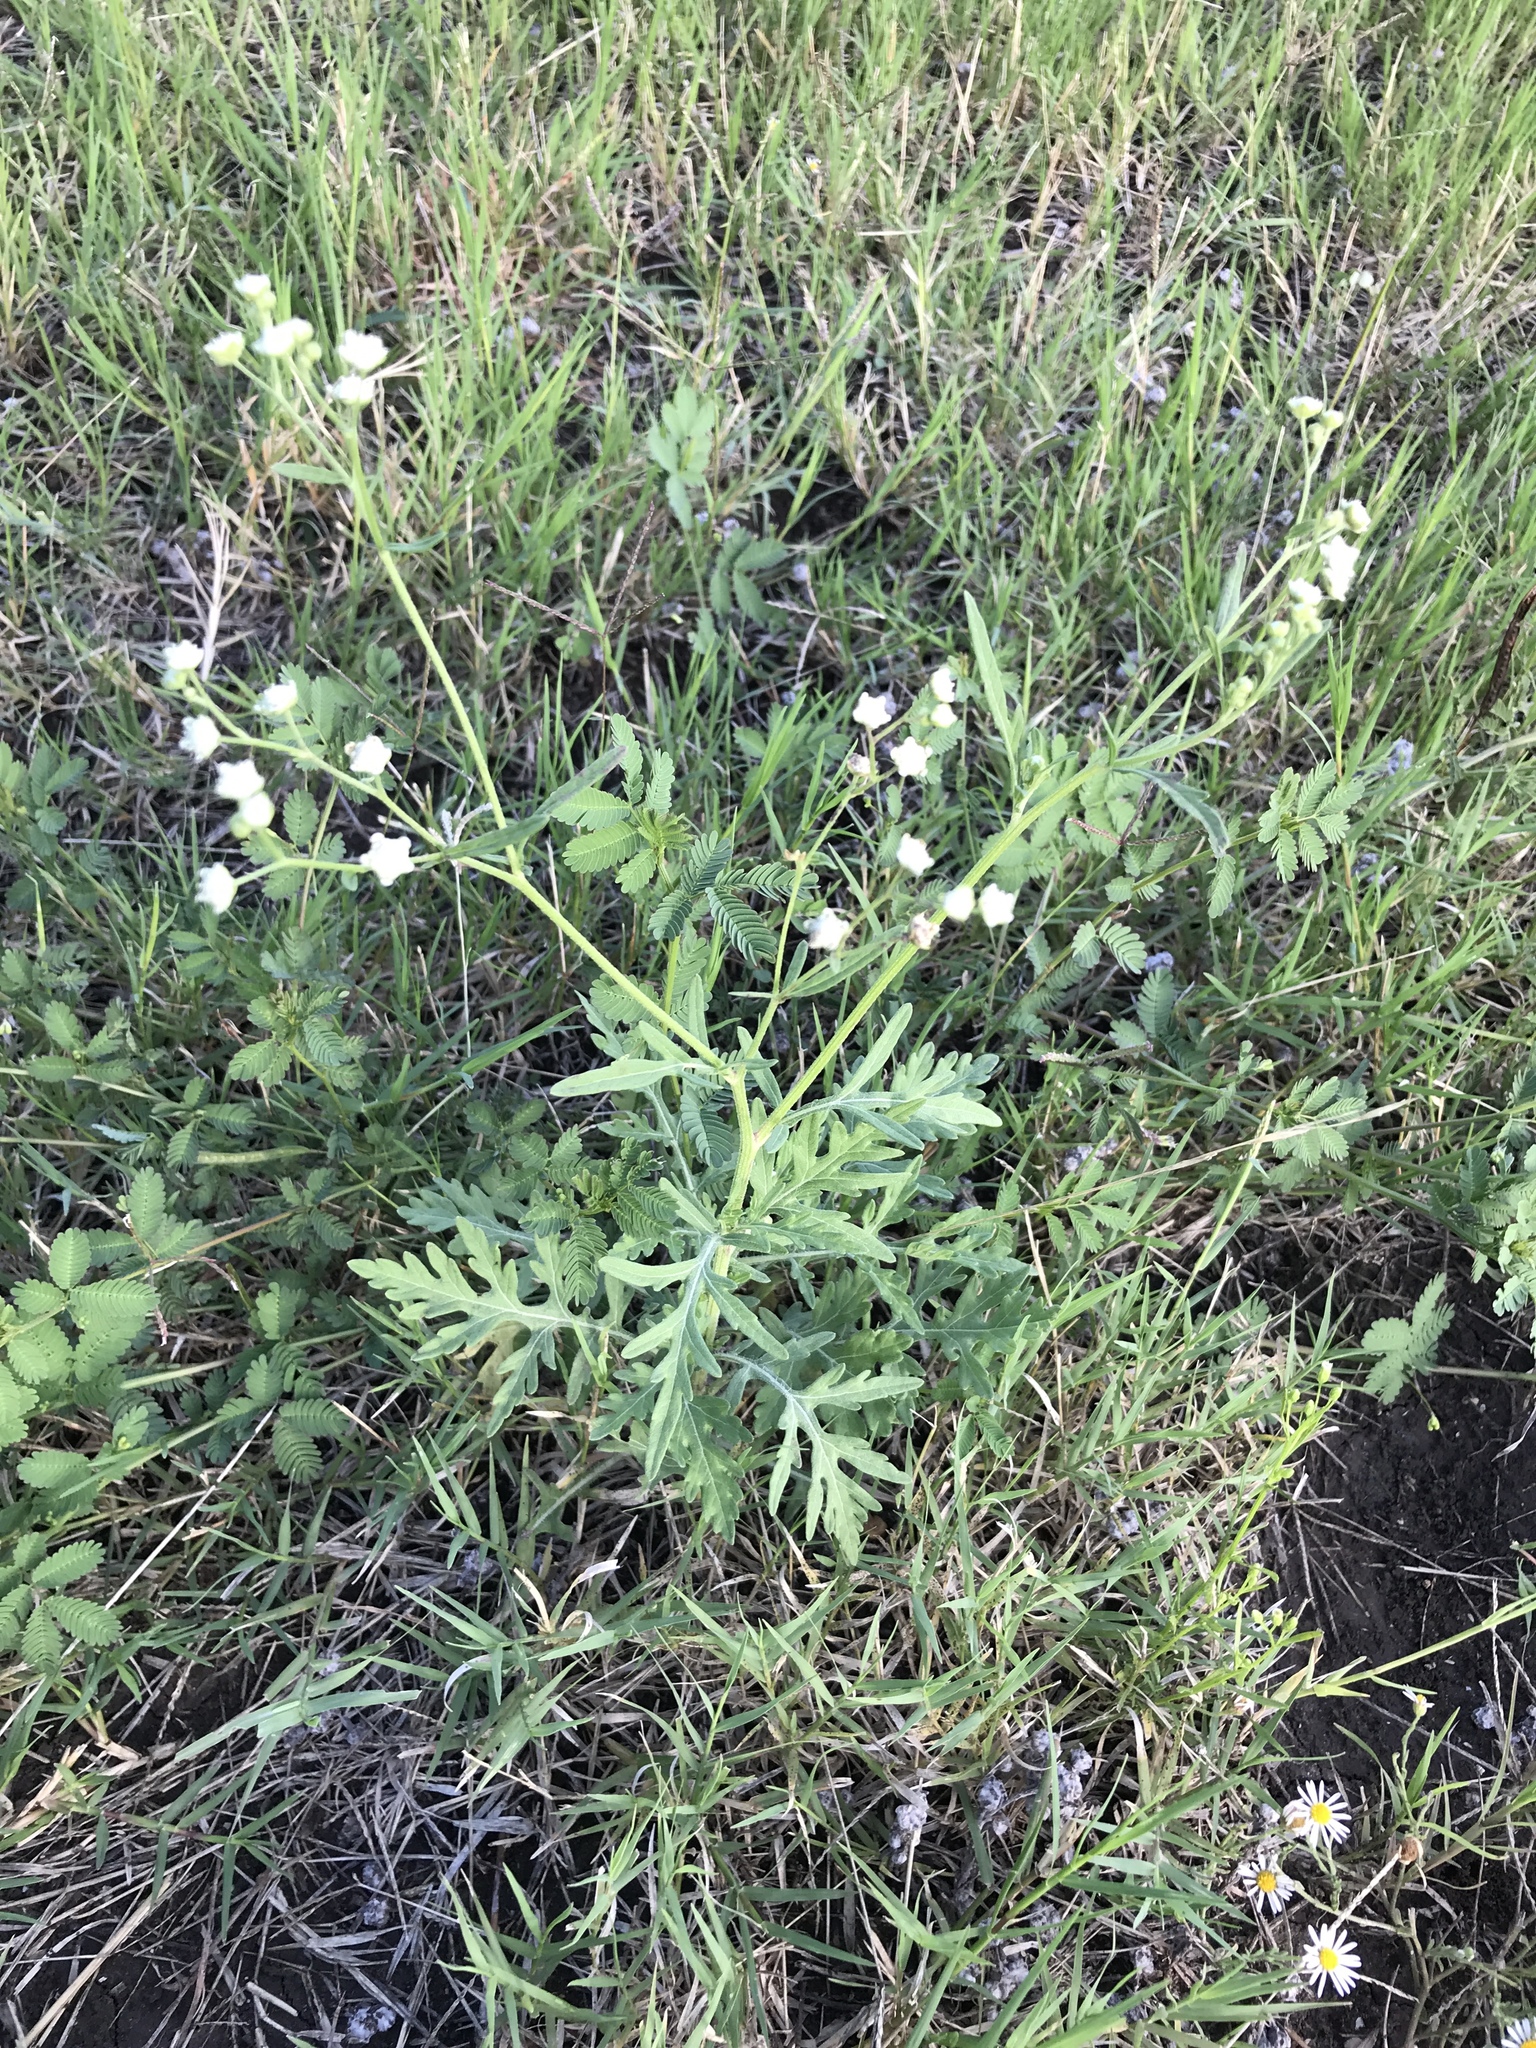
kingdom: Plantae
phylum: Tracheophyta
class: Magnoliopsida
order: Asterales
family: Asteraceae
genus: Parthenium
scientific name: Parthenium hysterophorus
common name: Santa maria feverfew
